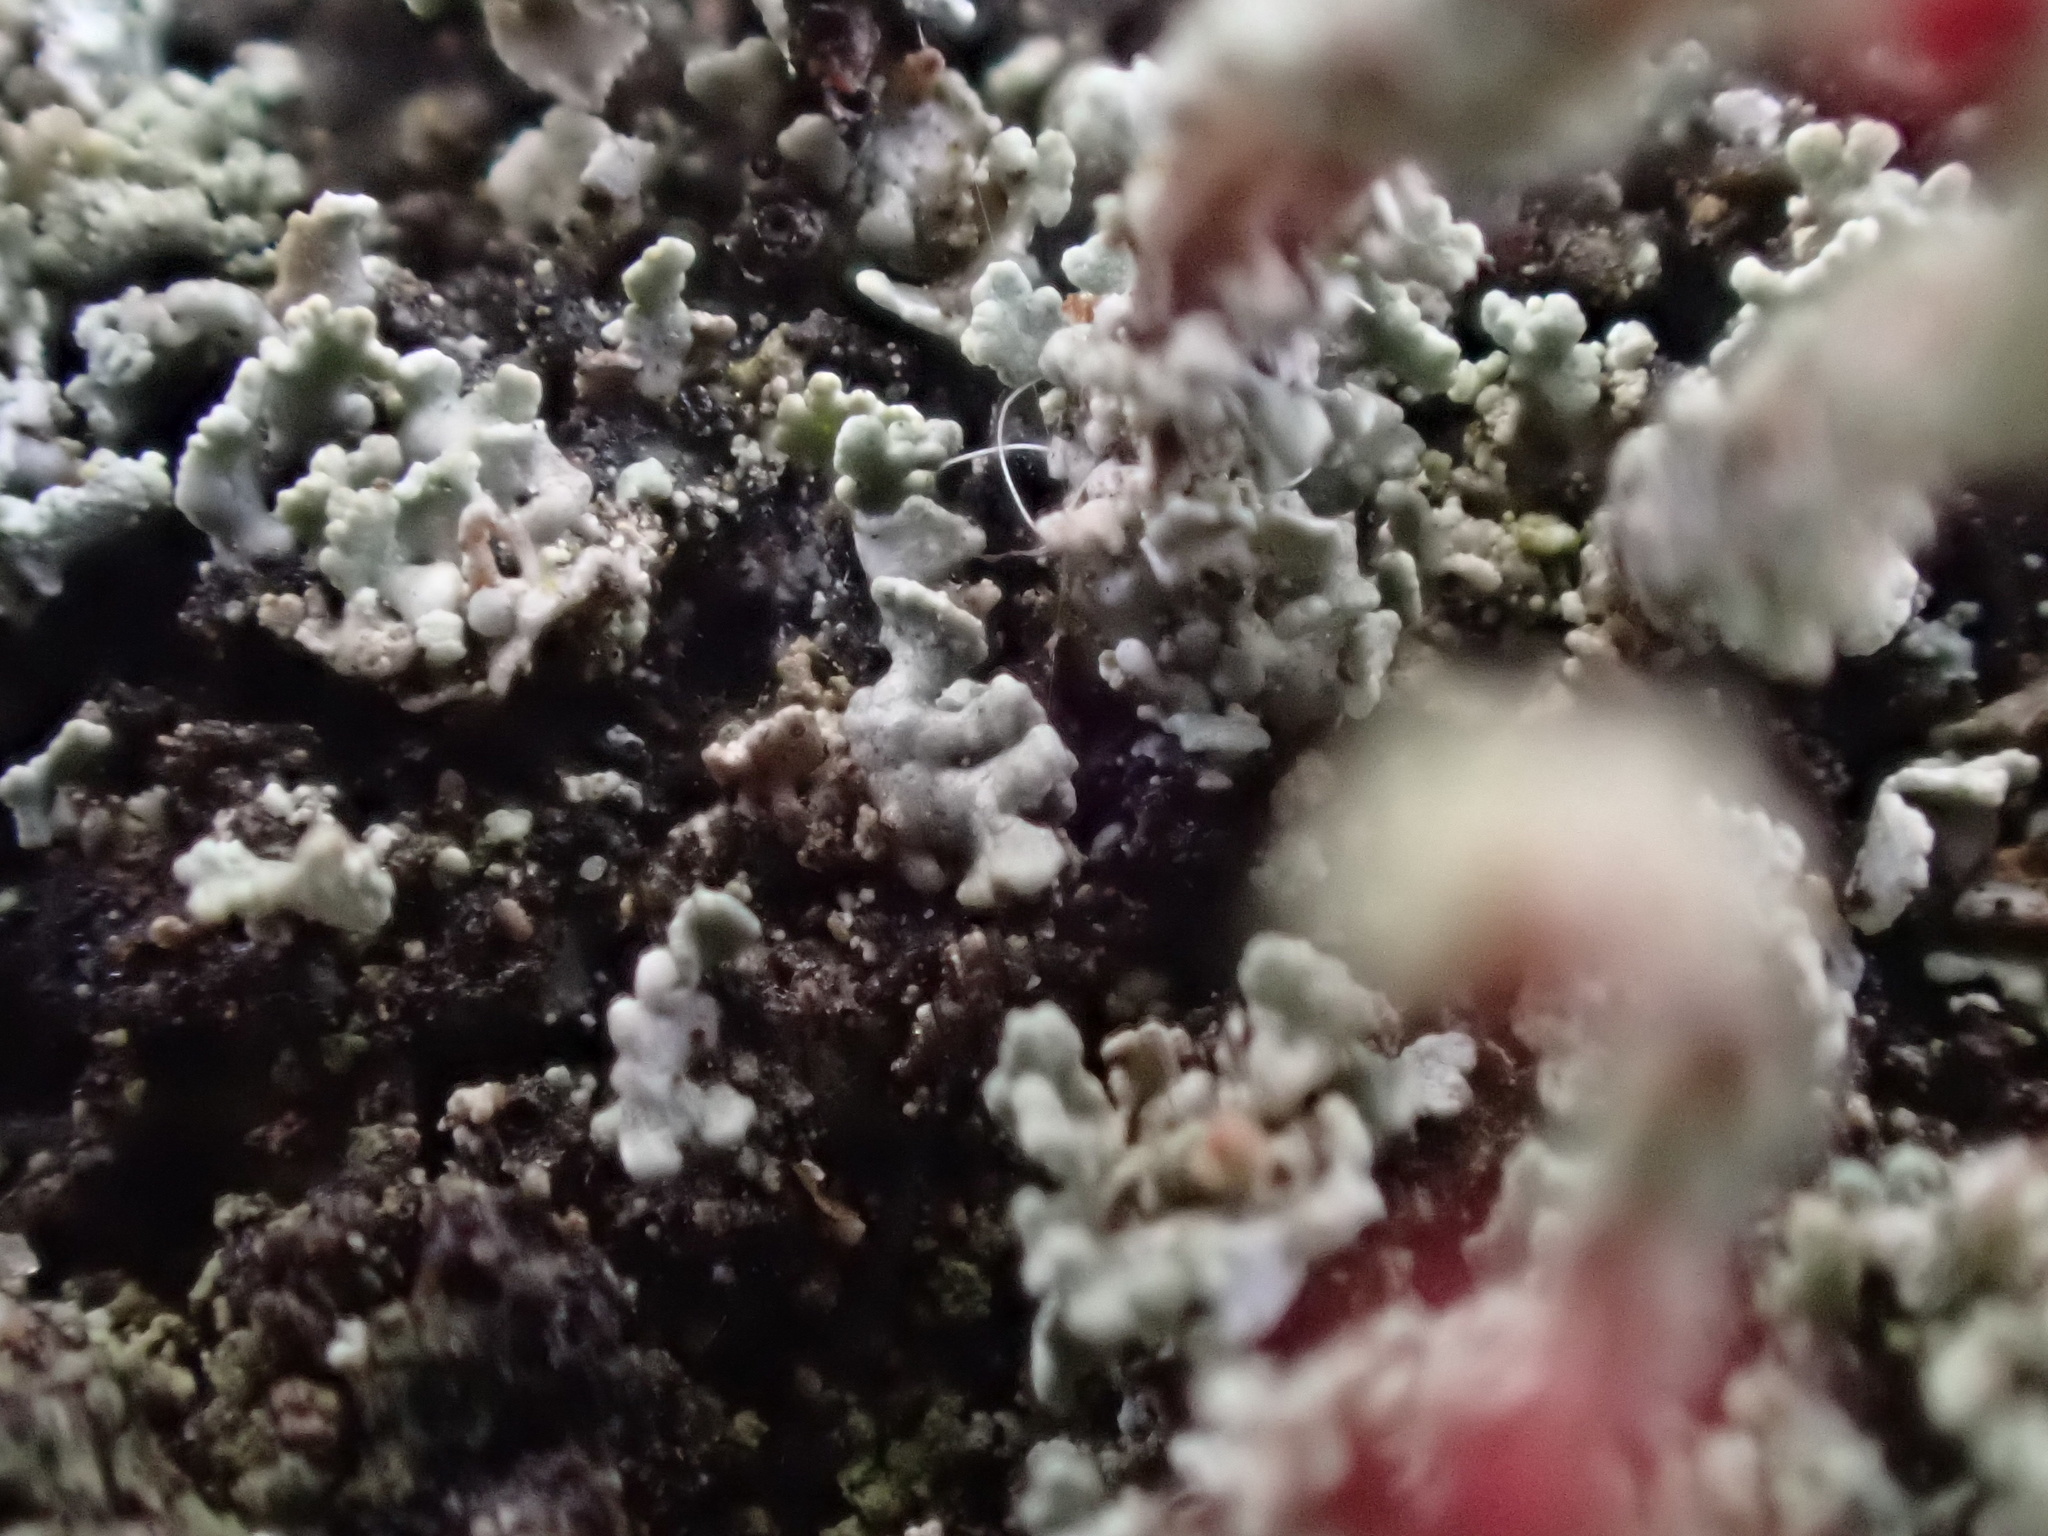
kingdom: Fungi
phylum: Ascomycota
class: Lecanoromycetes
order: Lecanorales
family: Cladoniaceae
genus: Cladonia
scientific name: Cladonia floerkeana
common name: Gritty british soldiers lichen
